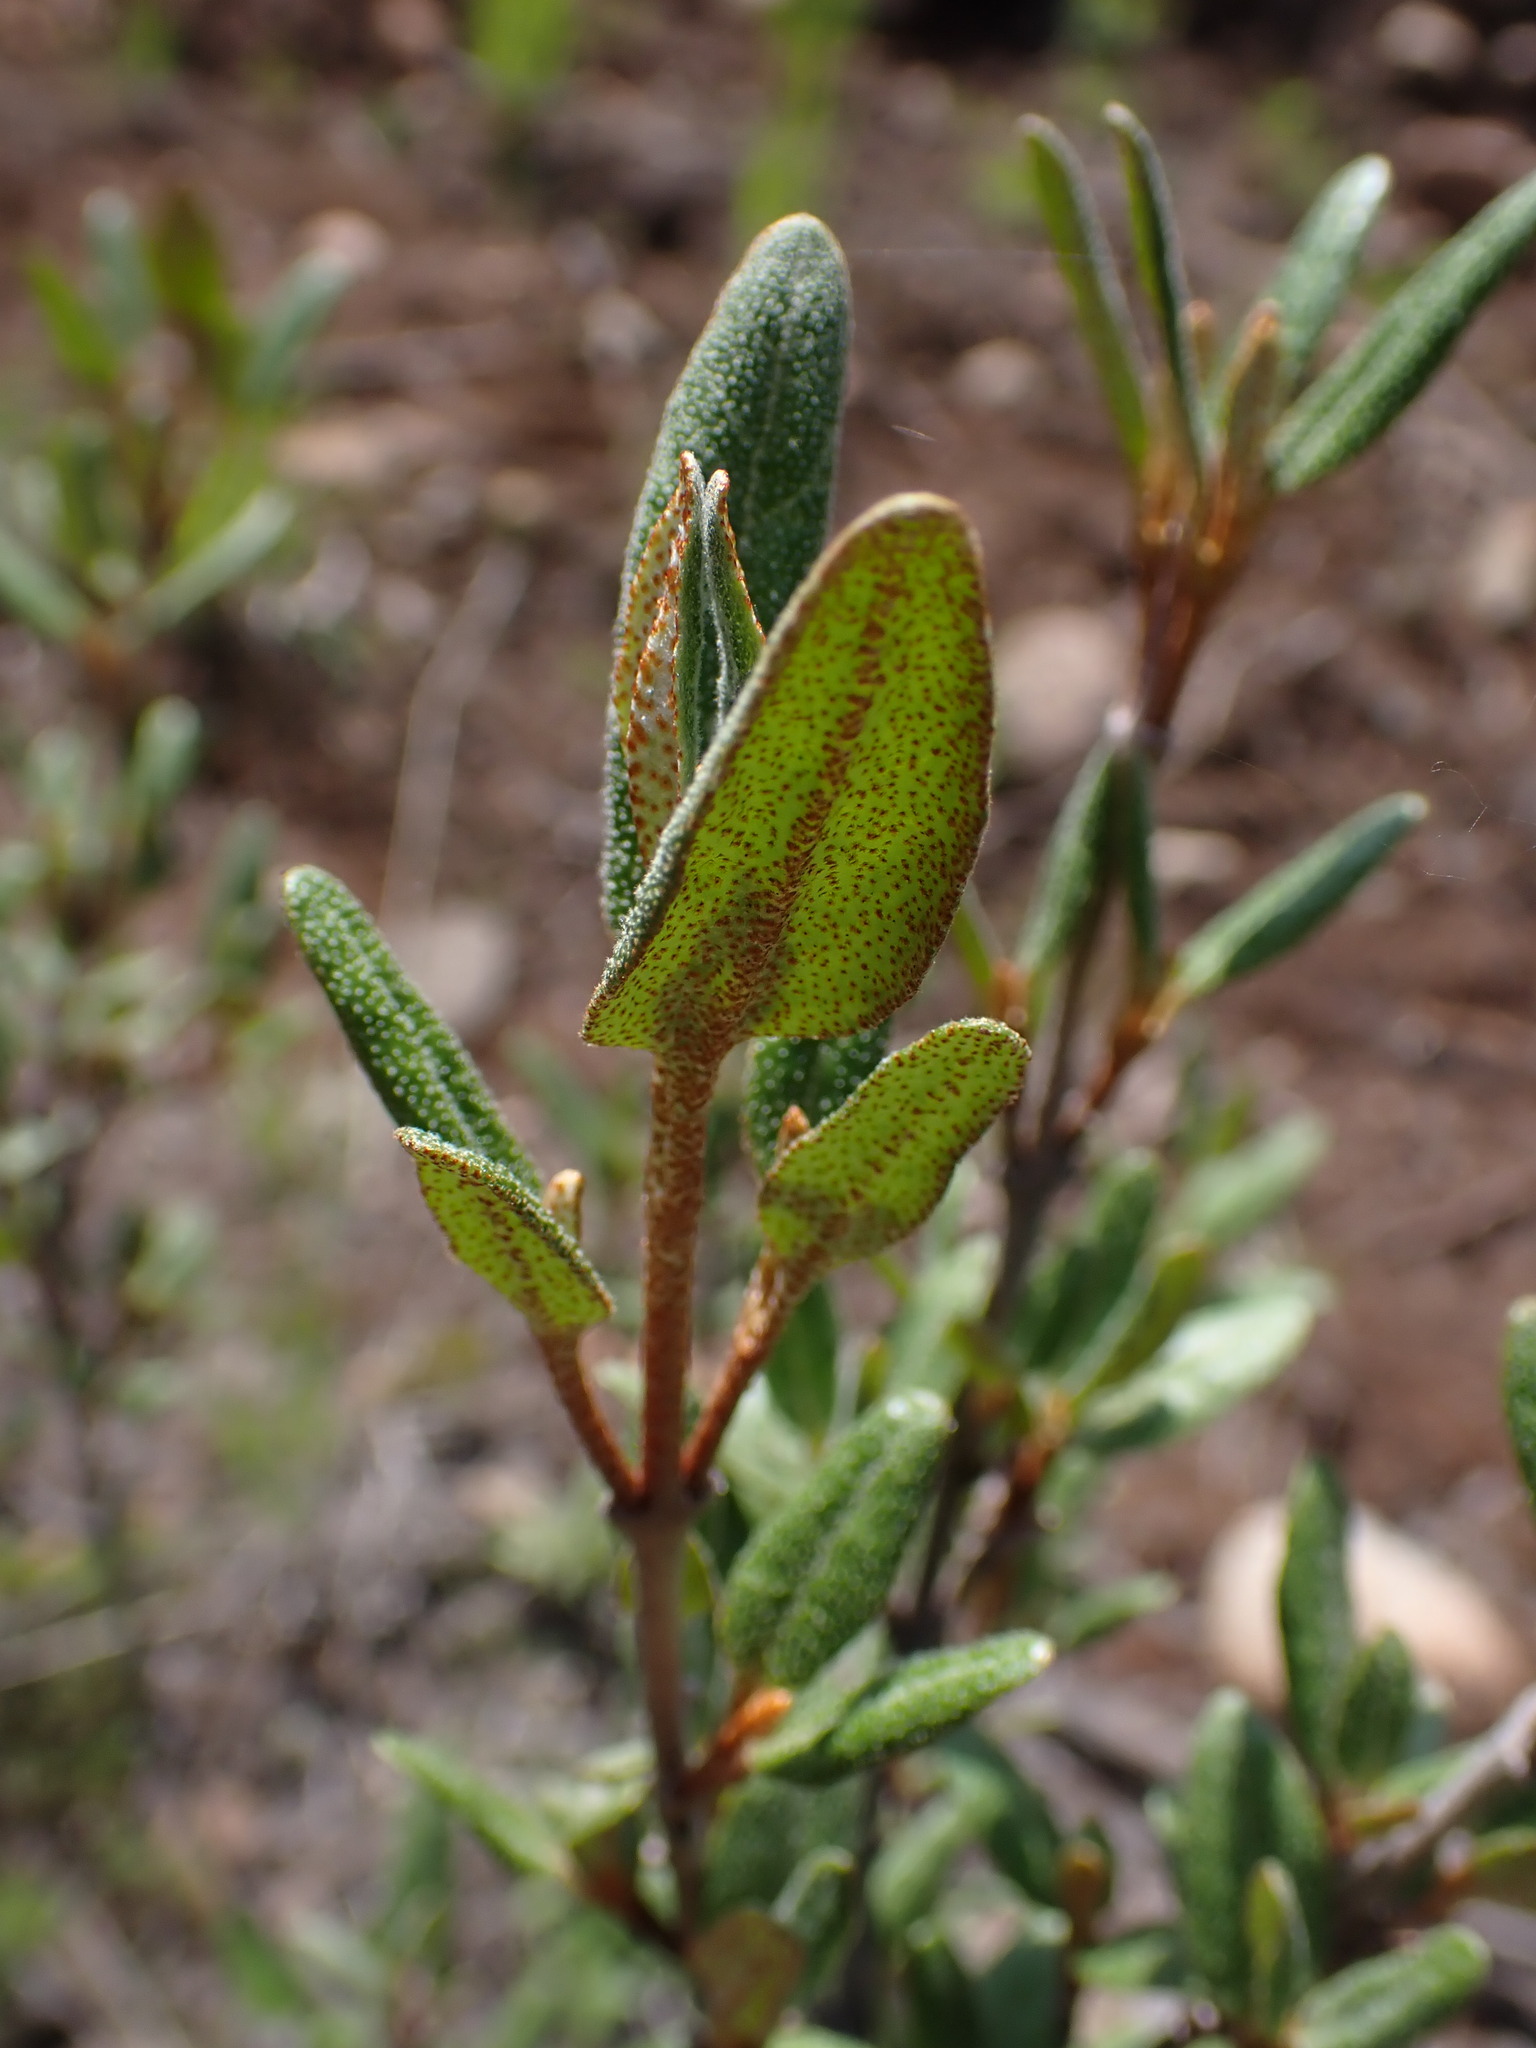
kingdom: Plantae
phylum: Tracheophyta
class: Magnoliopsida
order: Rosales
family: Elaeagnaceae
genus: Shepherdia
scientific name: Shepherdia canadensis
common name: Soapberry
